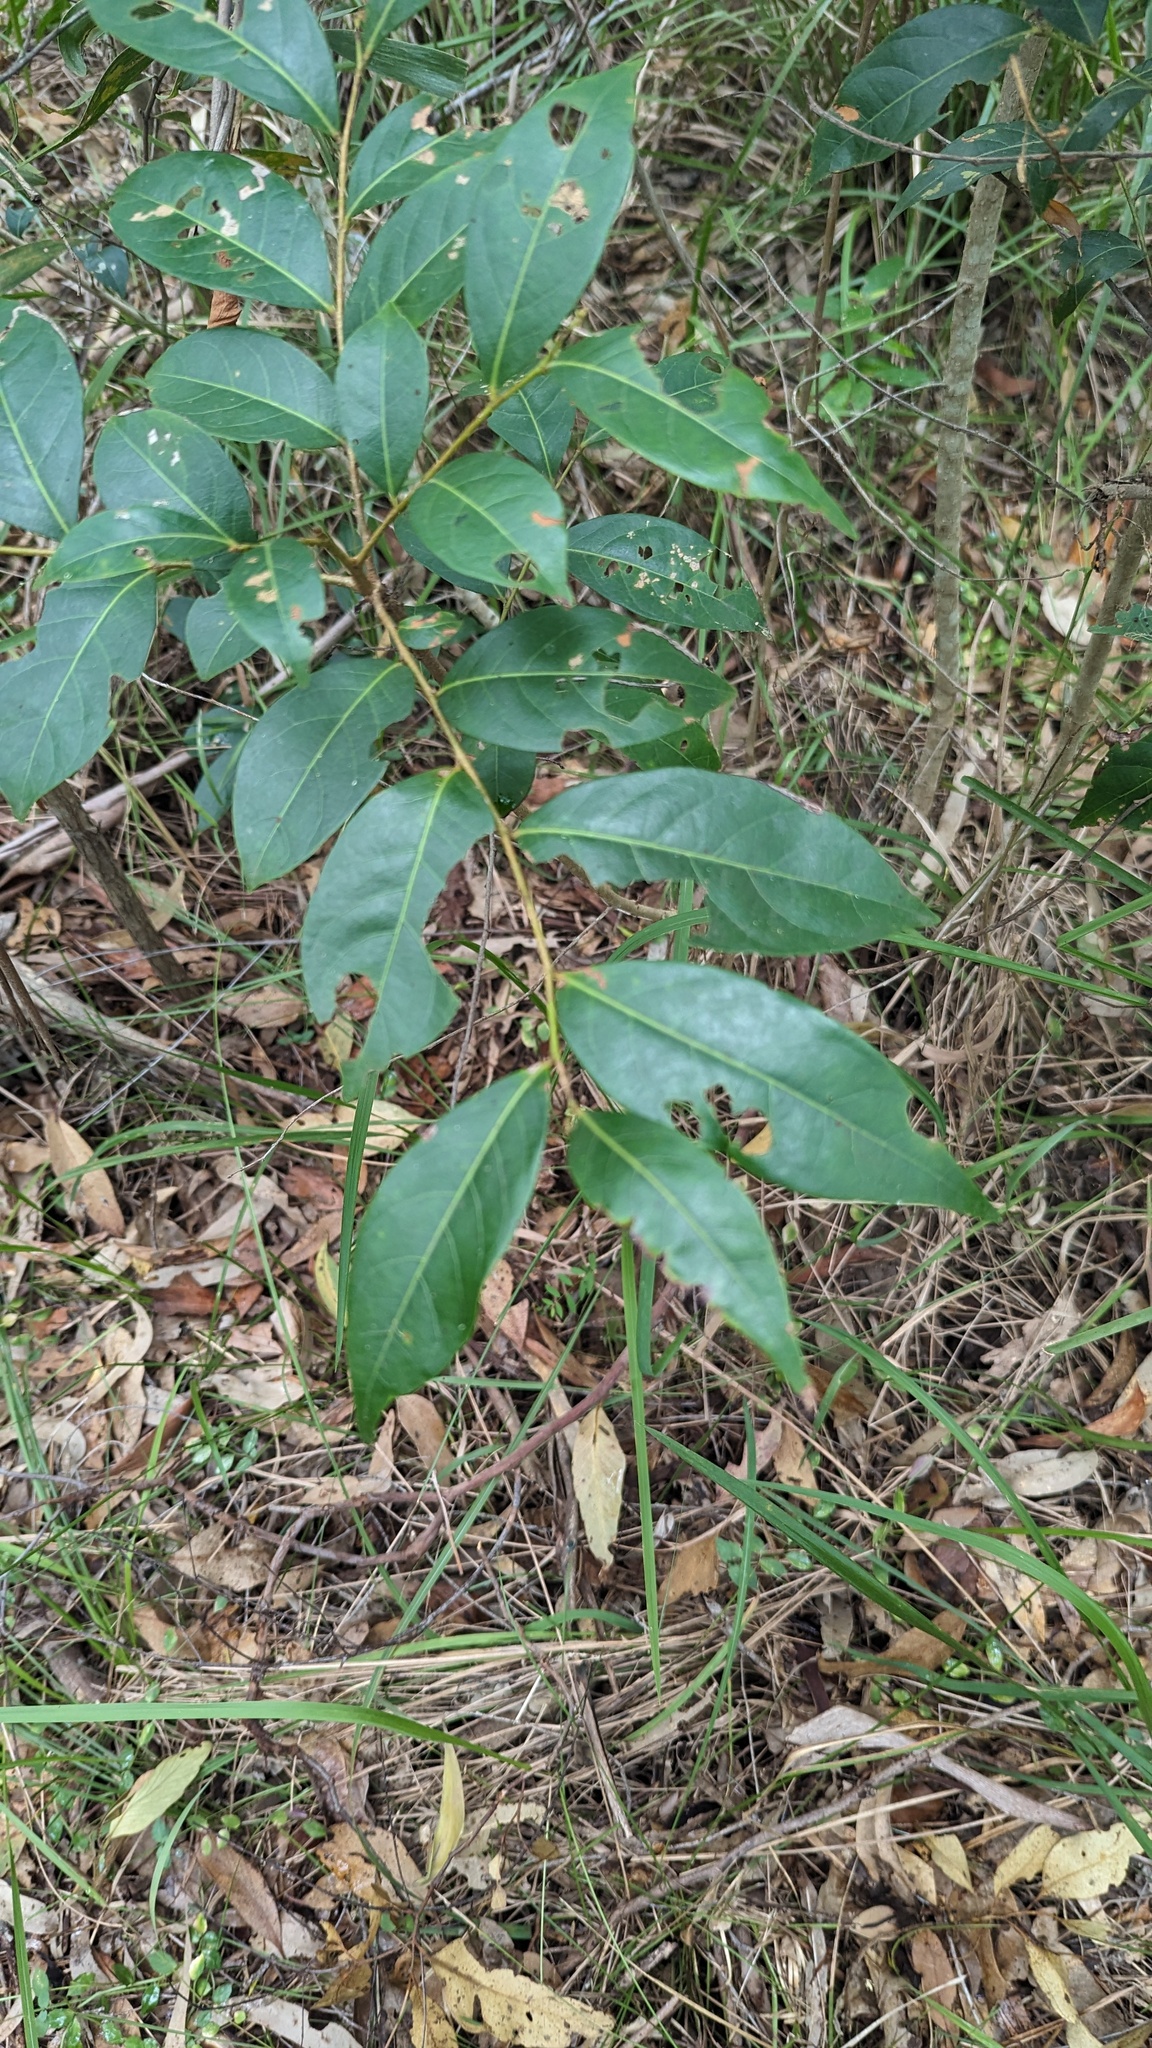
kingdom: Plantae
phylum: Tracheophyta
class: Magnoliopsida
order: Malpighiales
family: Phyllanthaceae
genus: Glochidion
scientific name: Glochidion ferdinandi
